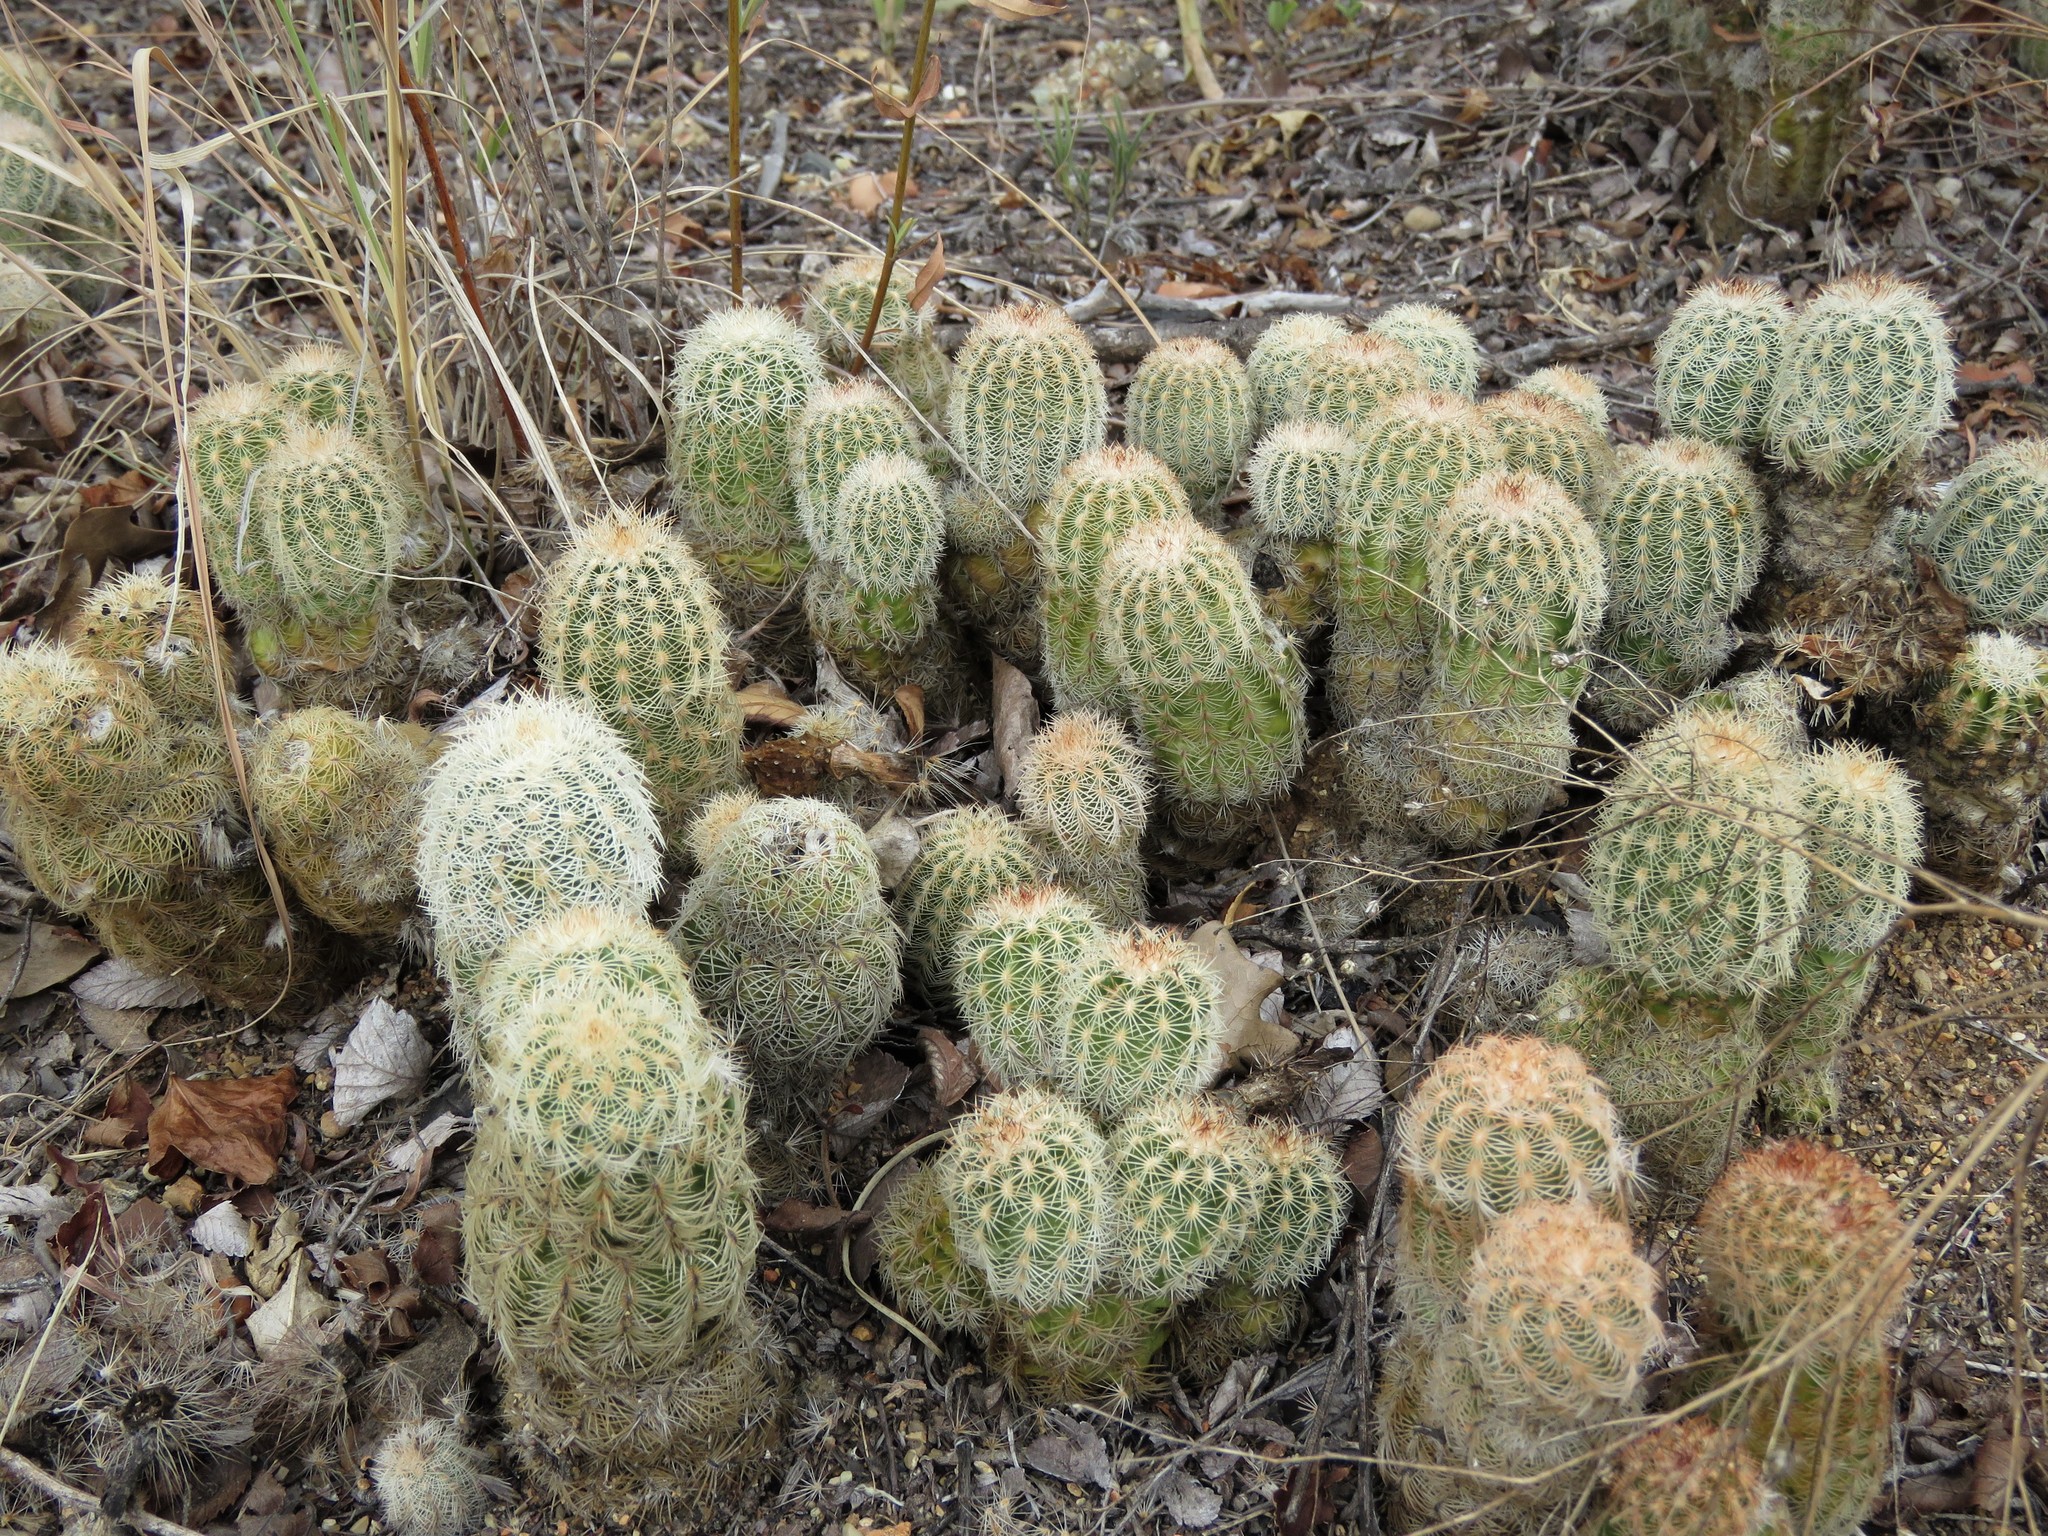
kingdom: Plantae
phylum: Tracheophyta
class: Magnoliopsida
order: Caryophyllales
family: Cactaceae
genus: Echinocereus
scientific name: Echinocereus reichenbachii
